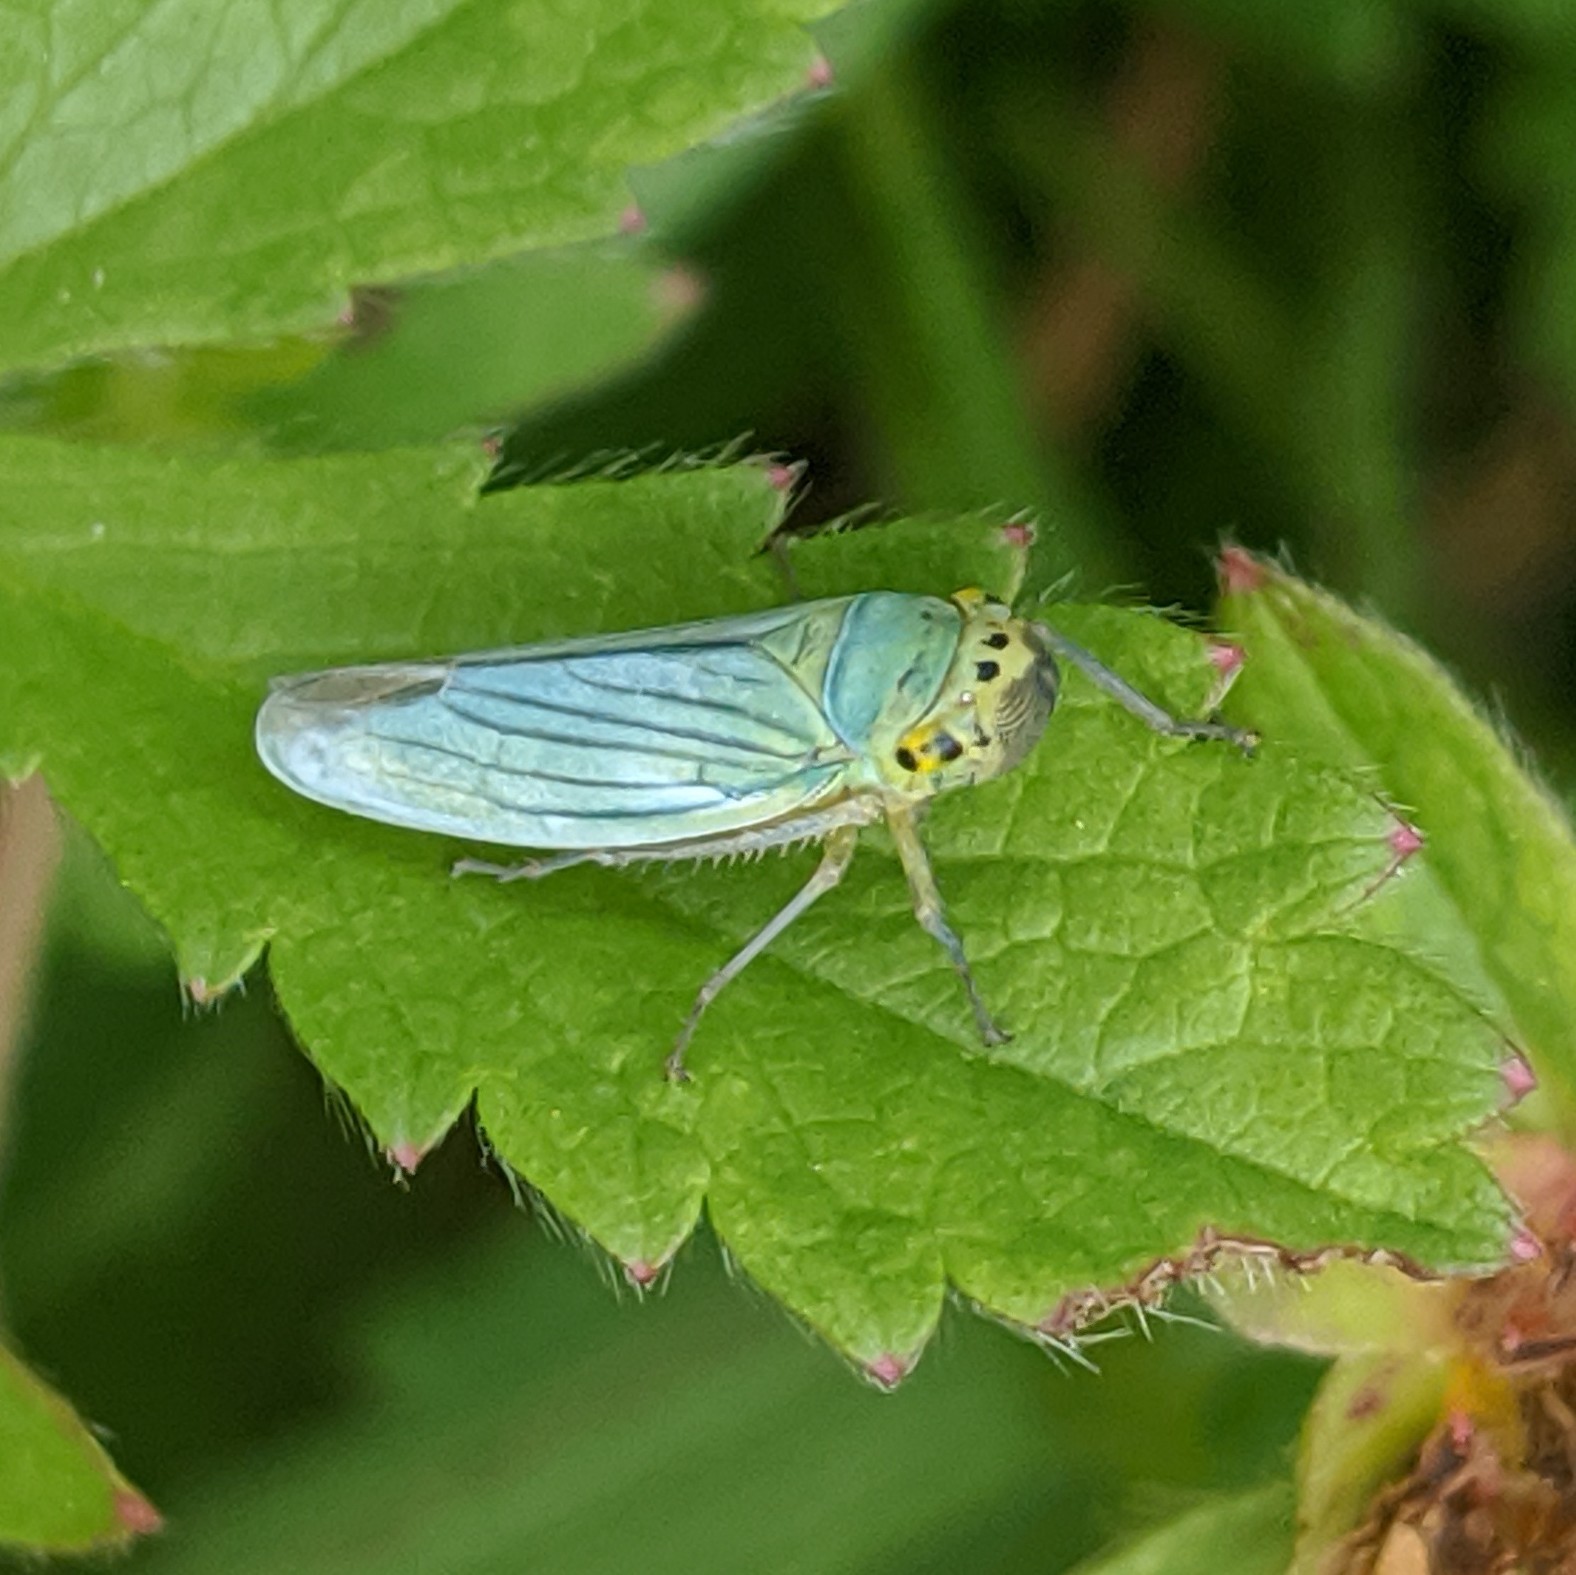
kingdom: Animalia
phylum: Arthropoda
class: Insecta
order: Hemiptera
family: Cicadellidae
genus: Cicadella
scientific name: Cicadella viridis
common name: Leafhopper
